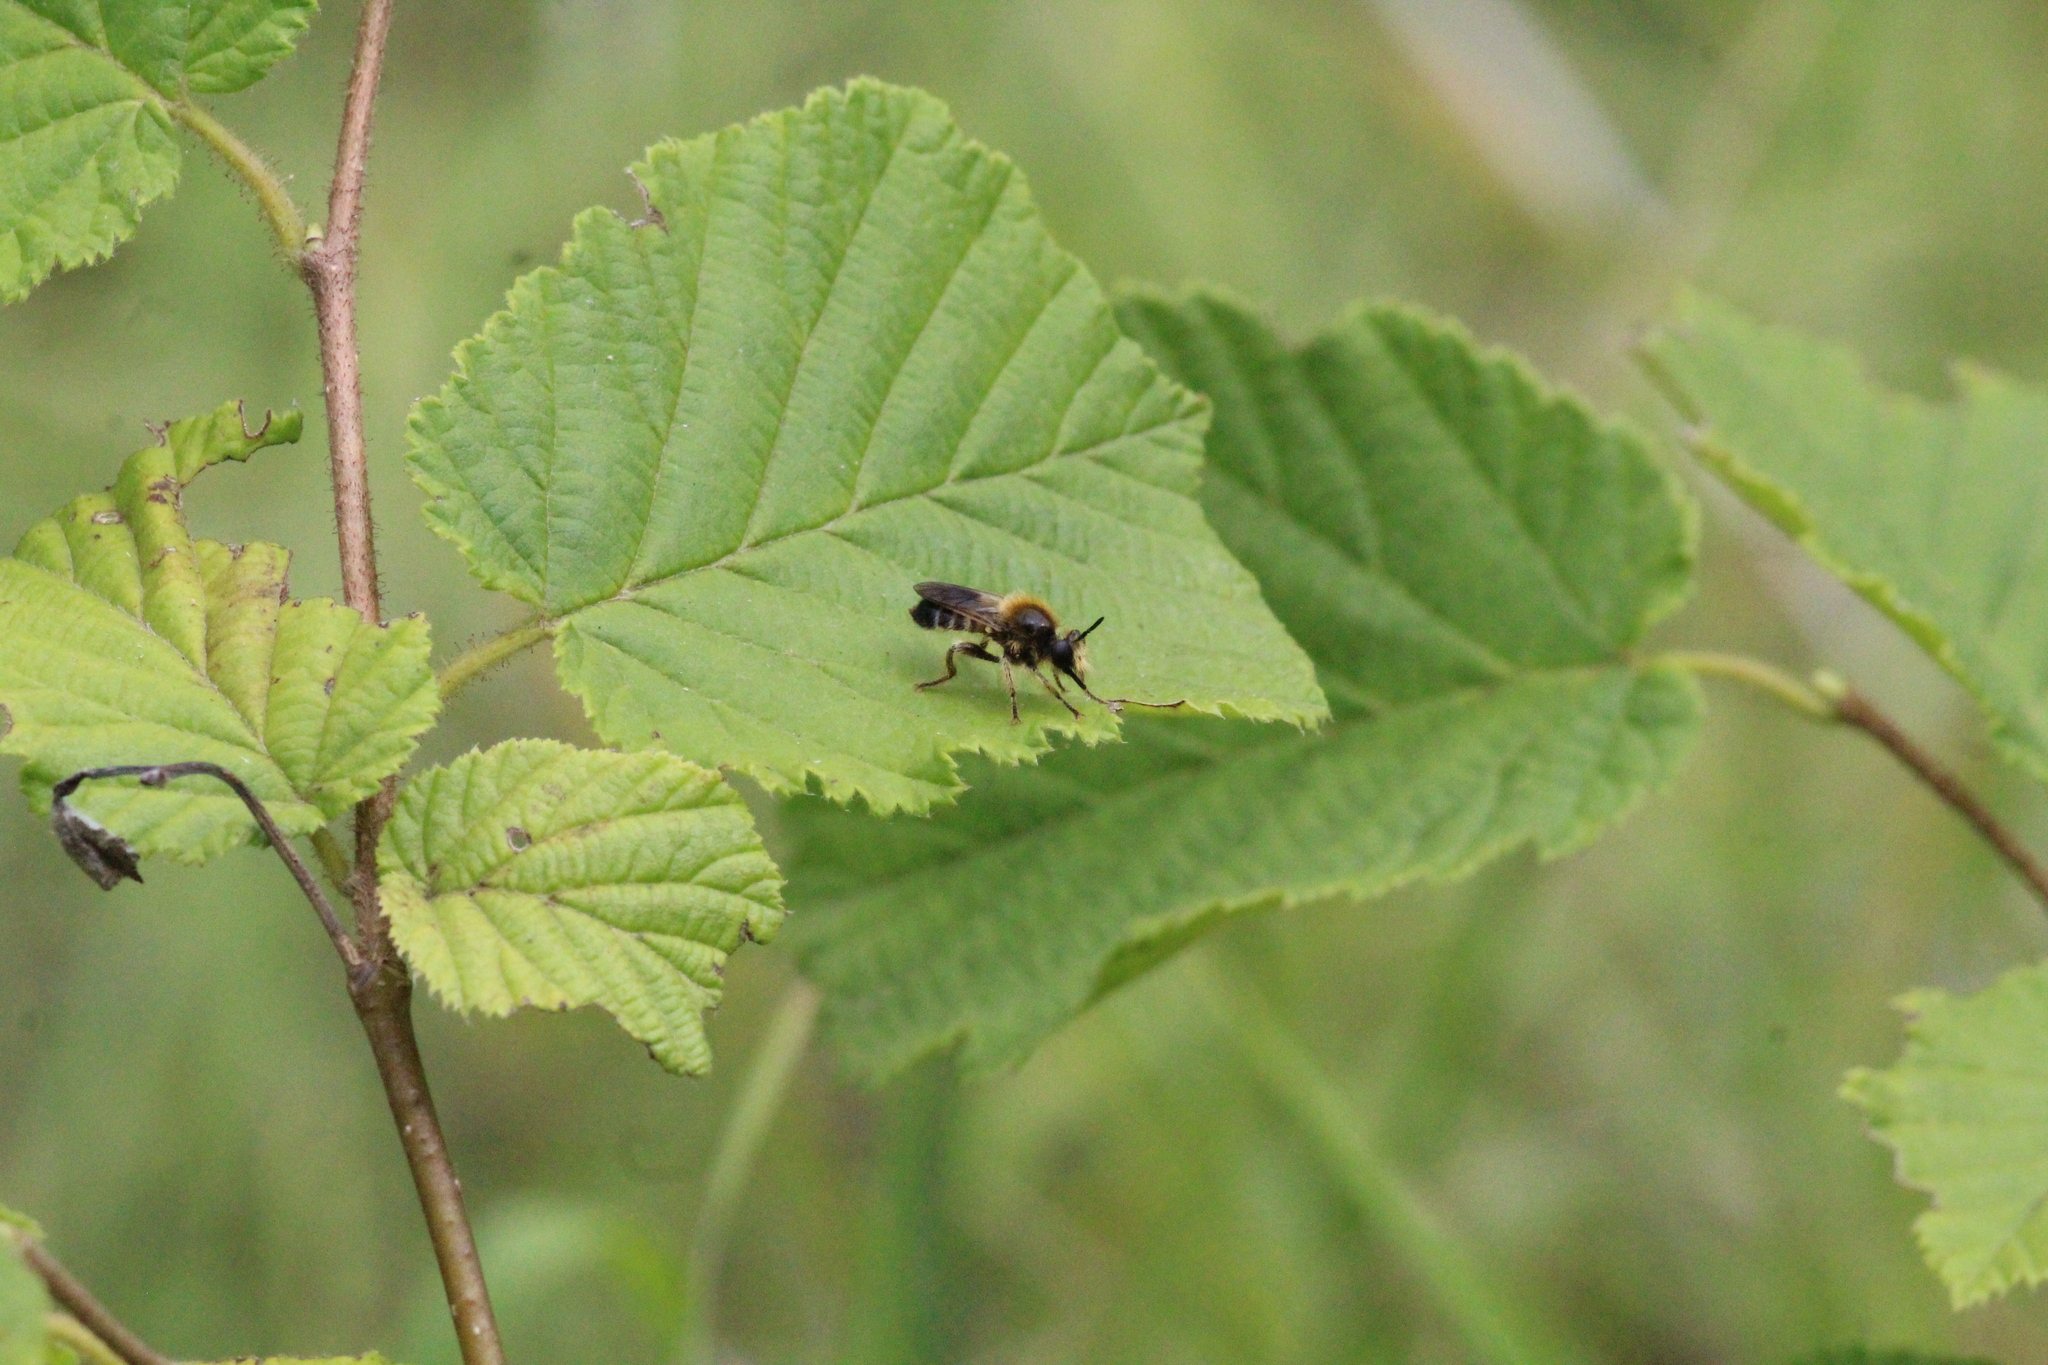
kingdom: Animalia
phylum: Arthropoda
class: Insecta
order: Diptera
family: Asilidae
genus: Lamyra
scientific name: Lamyra fuliginosa
